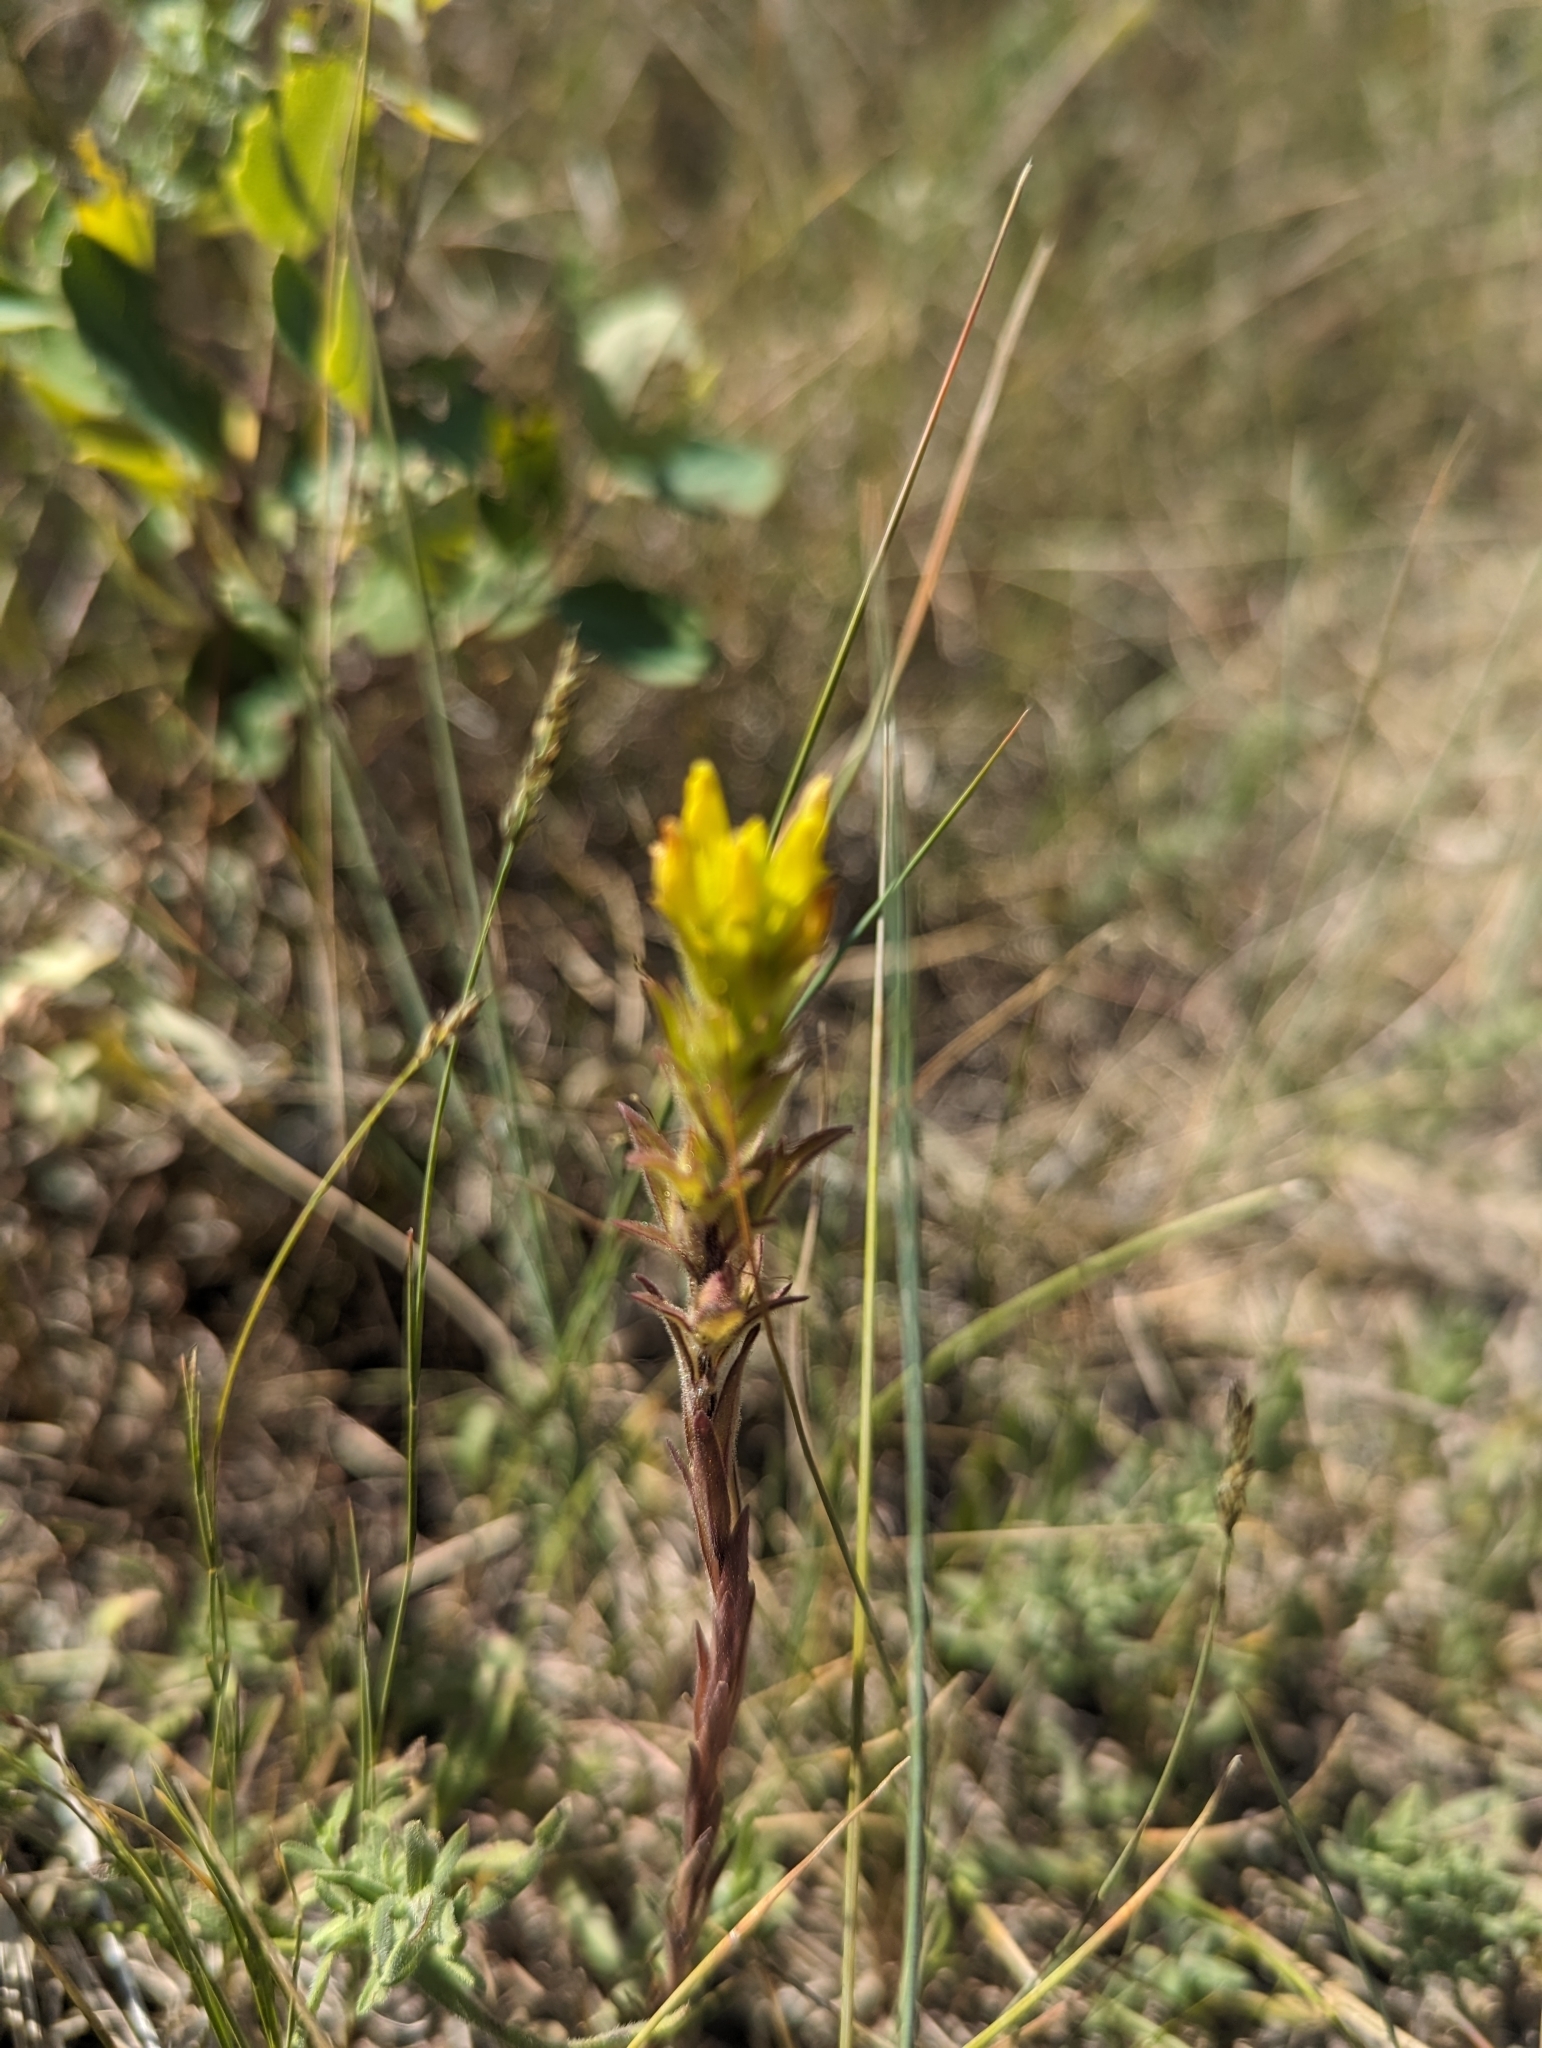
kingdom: Plantae
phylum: Tracheophyta
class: Magnoliopsida
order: Lamiales
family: Orobanchaceae
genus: Orthocarpus
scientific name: Orthocarpus luteus
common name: Golden-tongue owl's-clover
